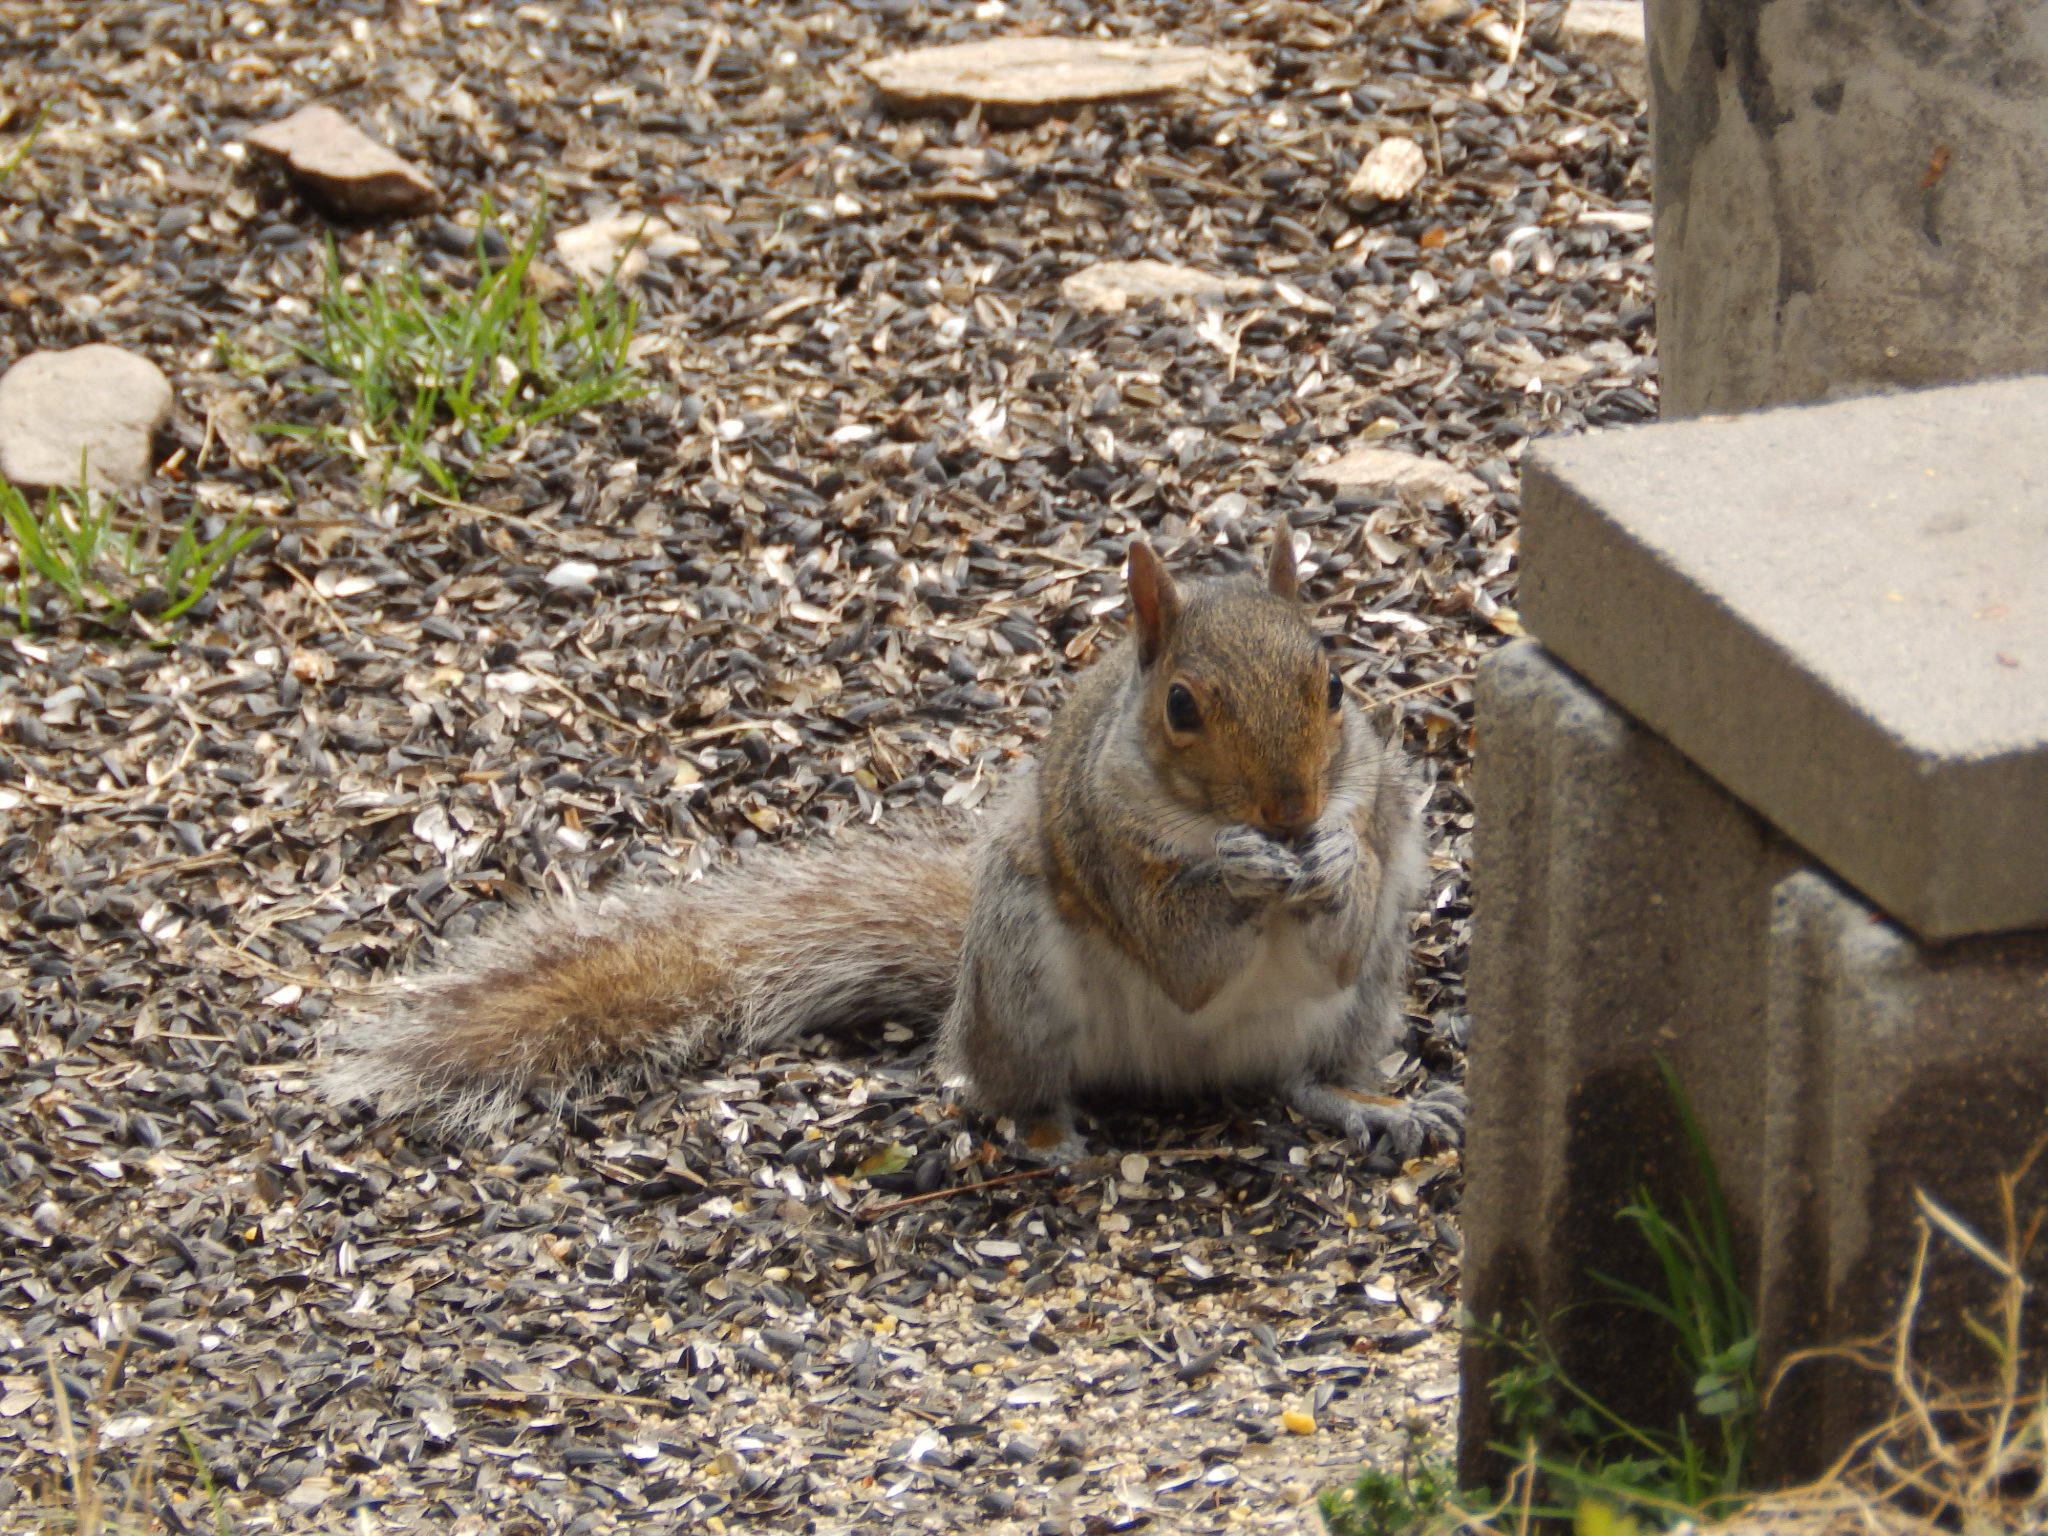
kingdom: Animalia
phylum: Chordata
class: Mammalia
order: Rodentia
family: Sciuridae
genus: Sciurus
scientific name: Sciurus carolinensis
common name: Eastern gray squirrel
